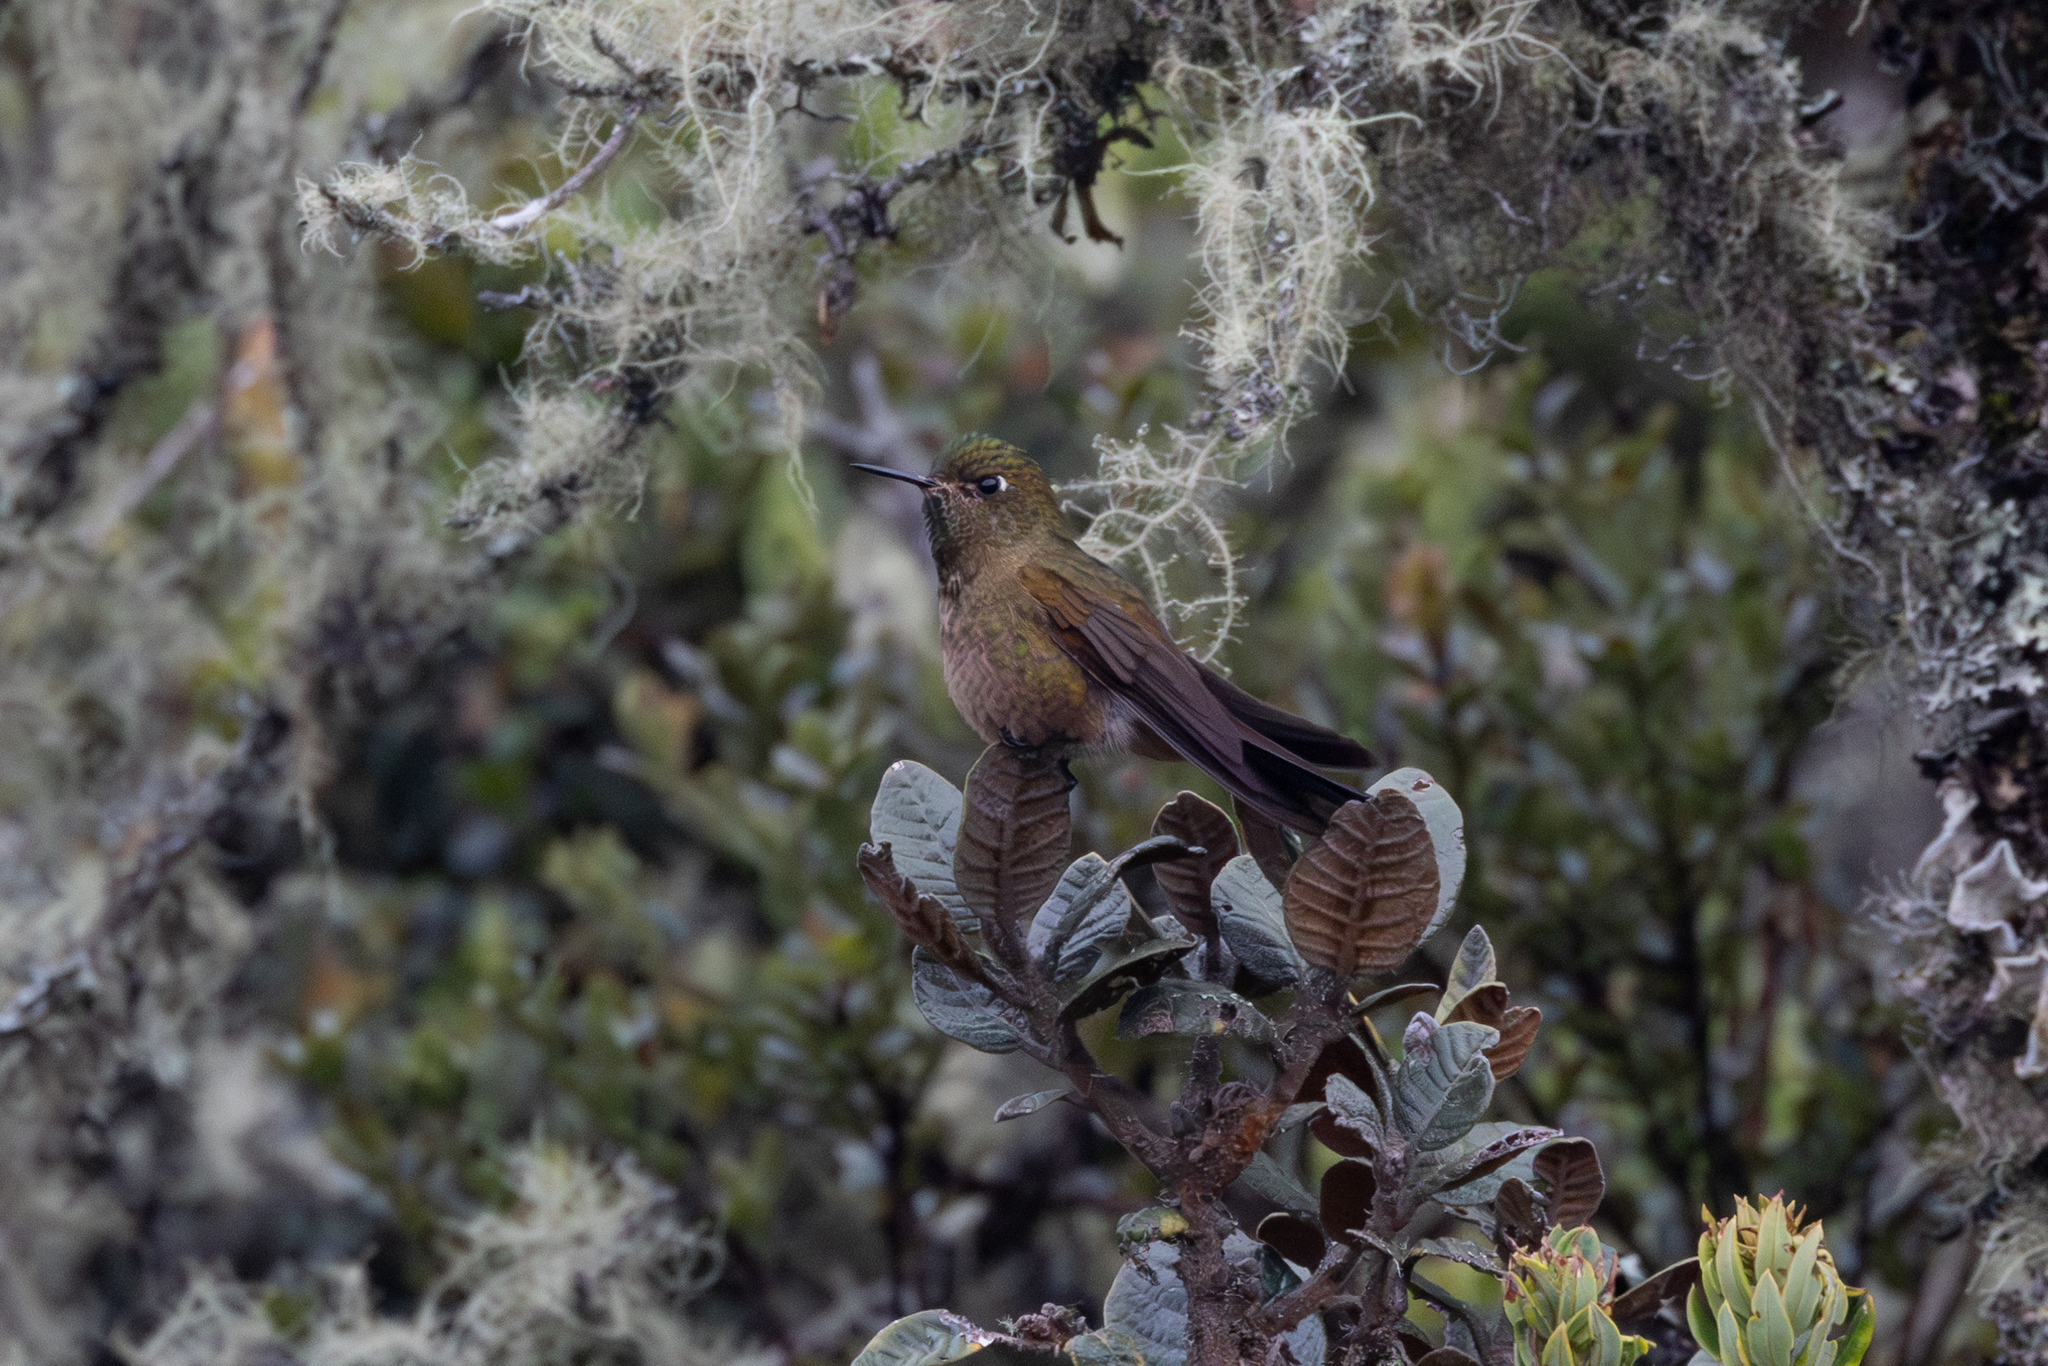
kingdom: Animalia
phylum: Chordata
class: Aves
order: Apodiformes
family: Trochilidae
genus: Chalcostigma
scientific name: Chalcostigma heteropogon
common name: Bronze-tailed thornbill
